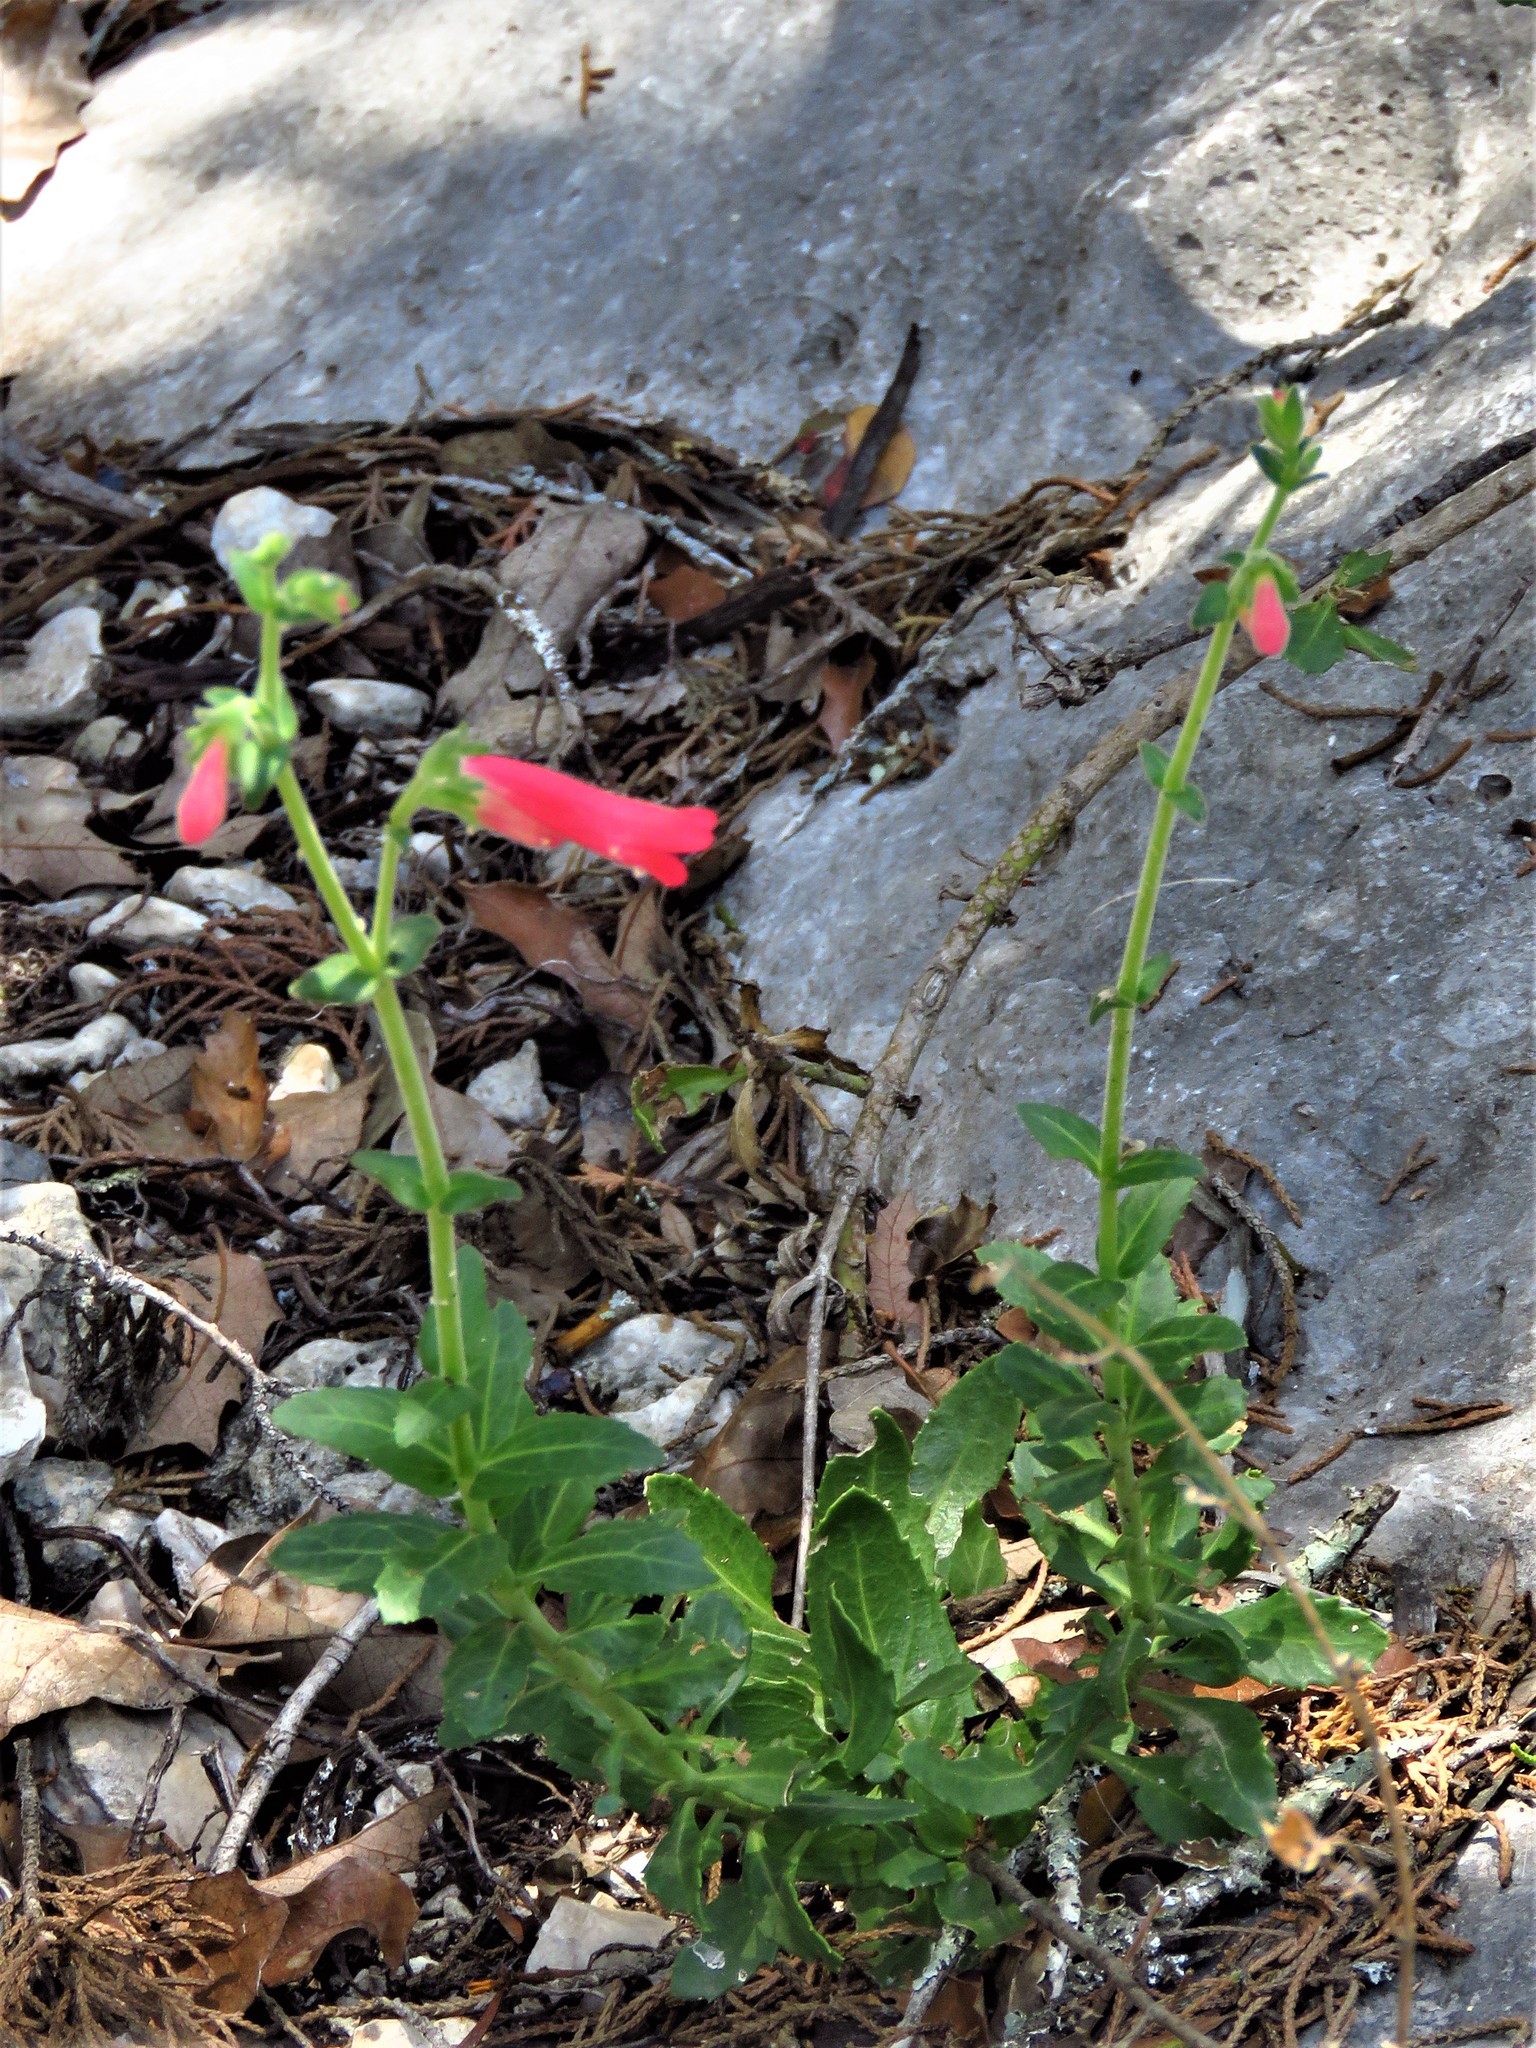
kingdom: Plantae
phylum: Tracheophyta
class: Magnoliopsida
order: Lamiales
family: Plantaginaceae
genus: Penstemon
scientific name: Penstemon baccharifolius
